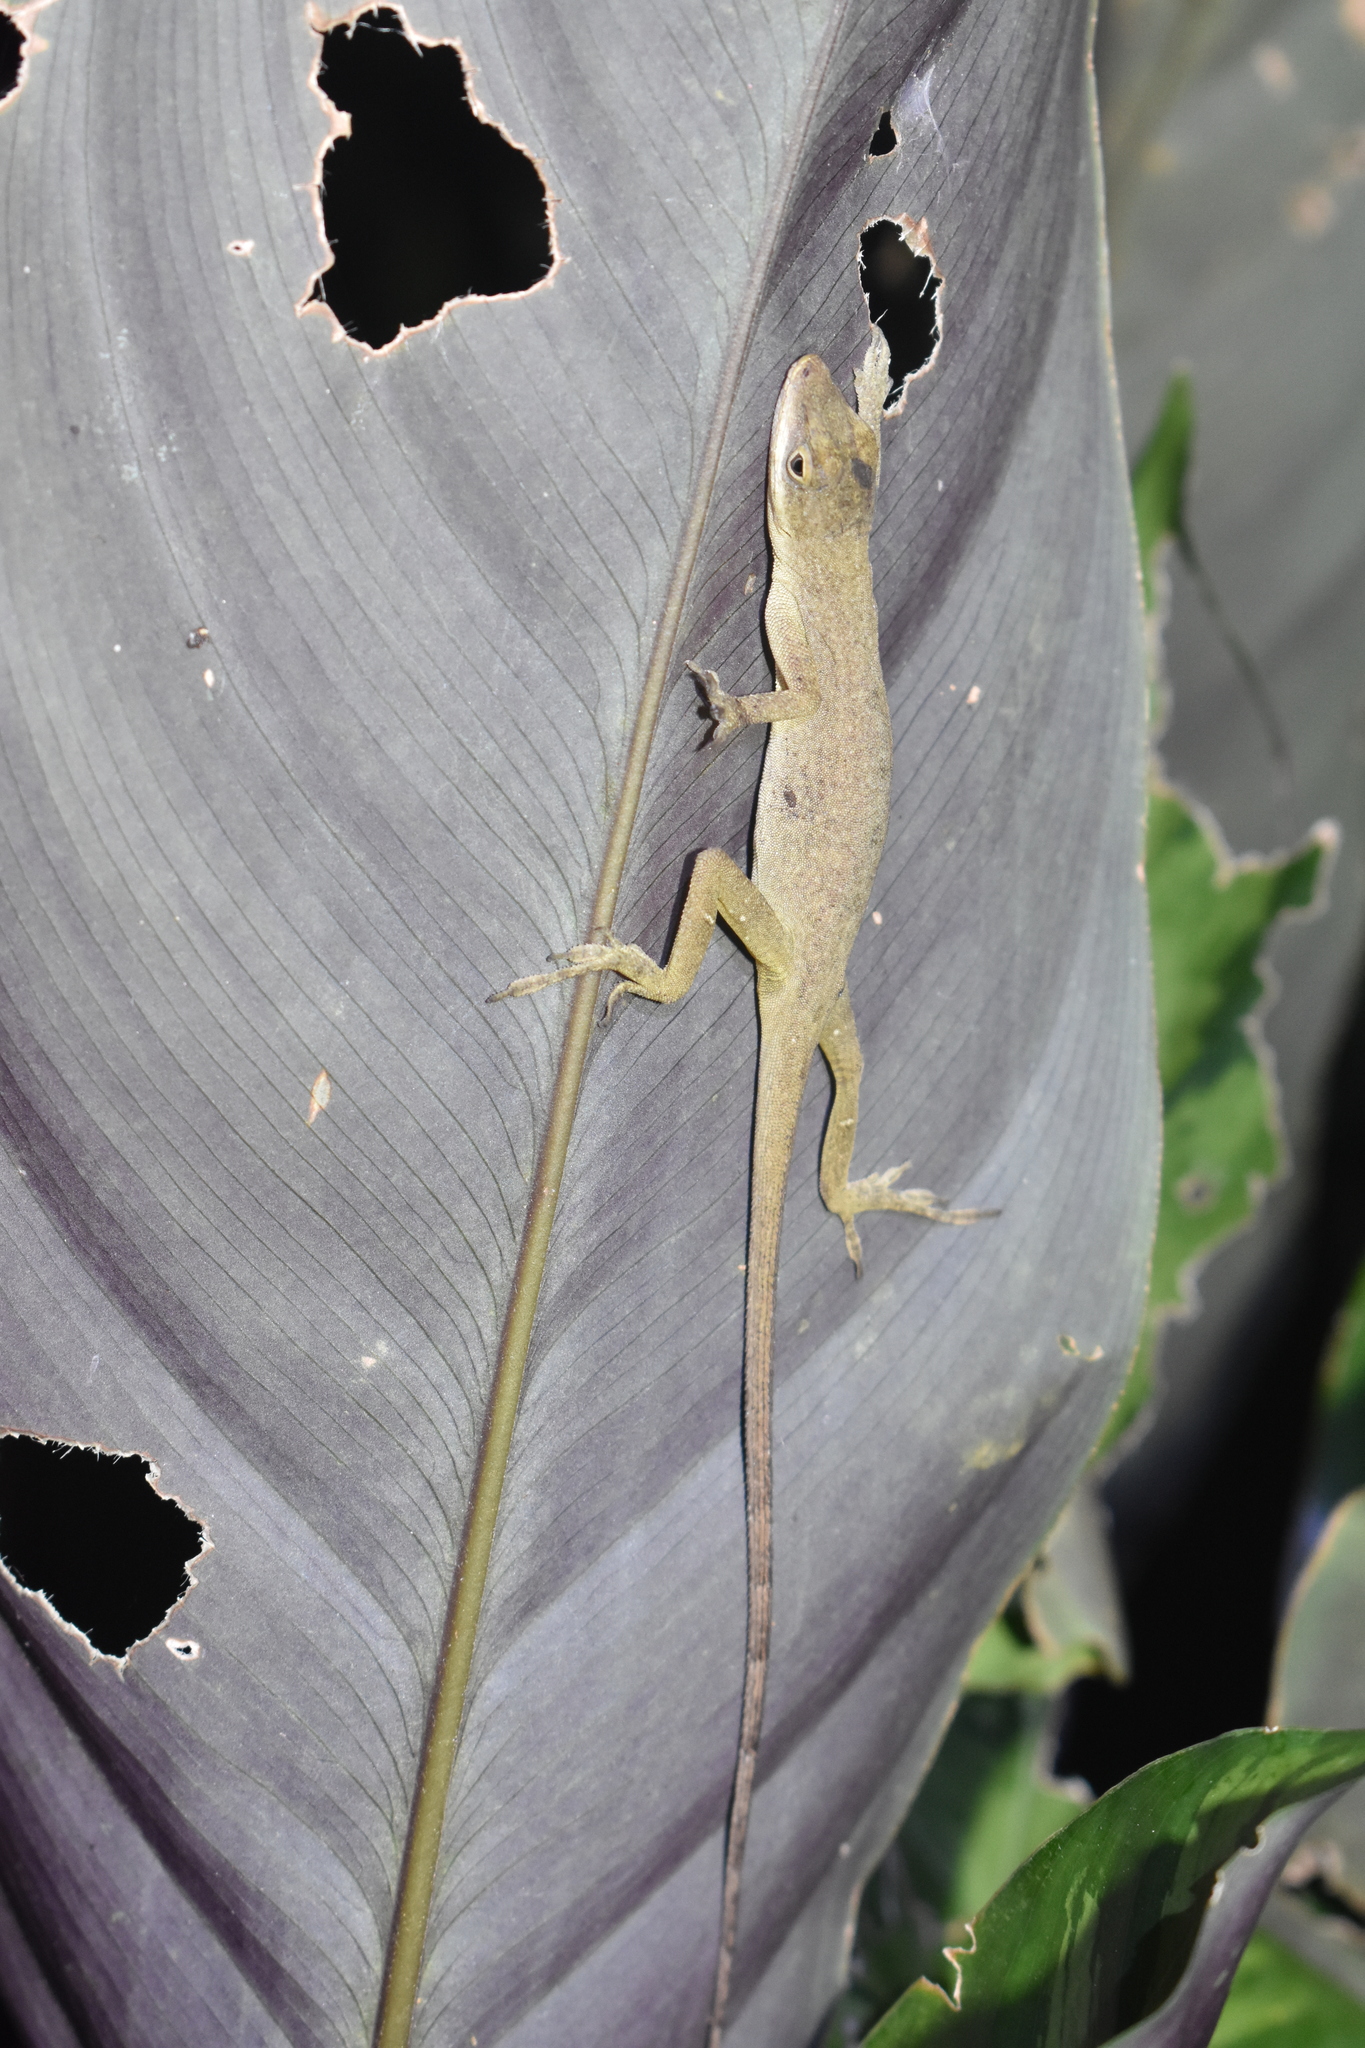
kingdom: Animalia
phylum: Chordata
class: Squamata
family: Dactyloidae
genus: Anolis
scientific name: Anolis mariarum
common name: Blemished anole
